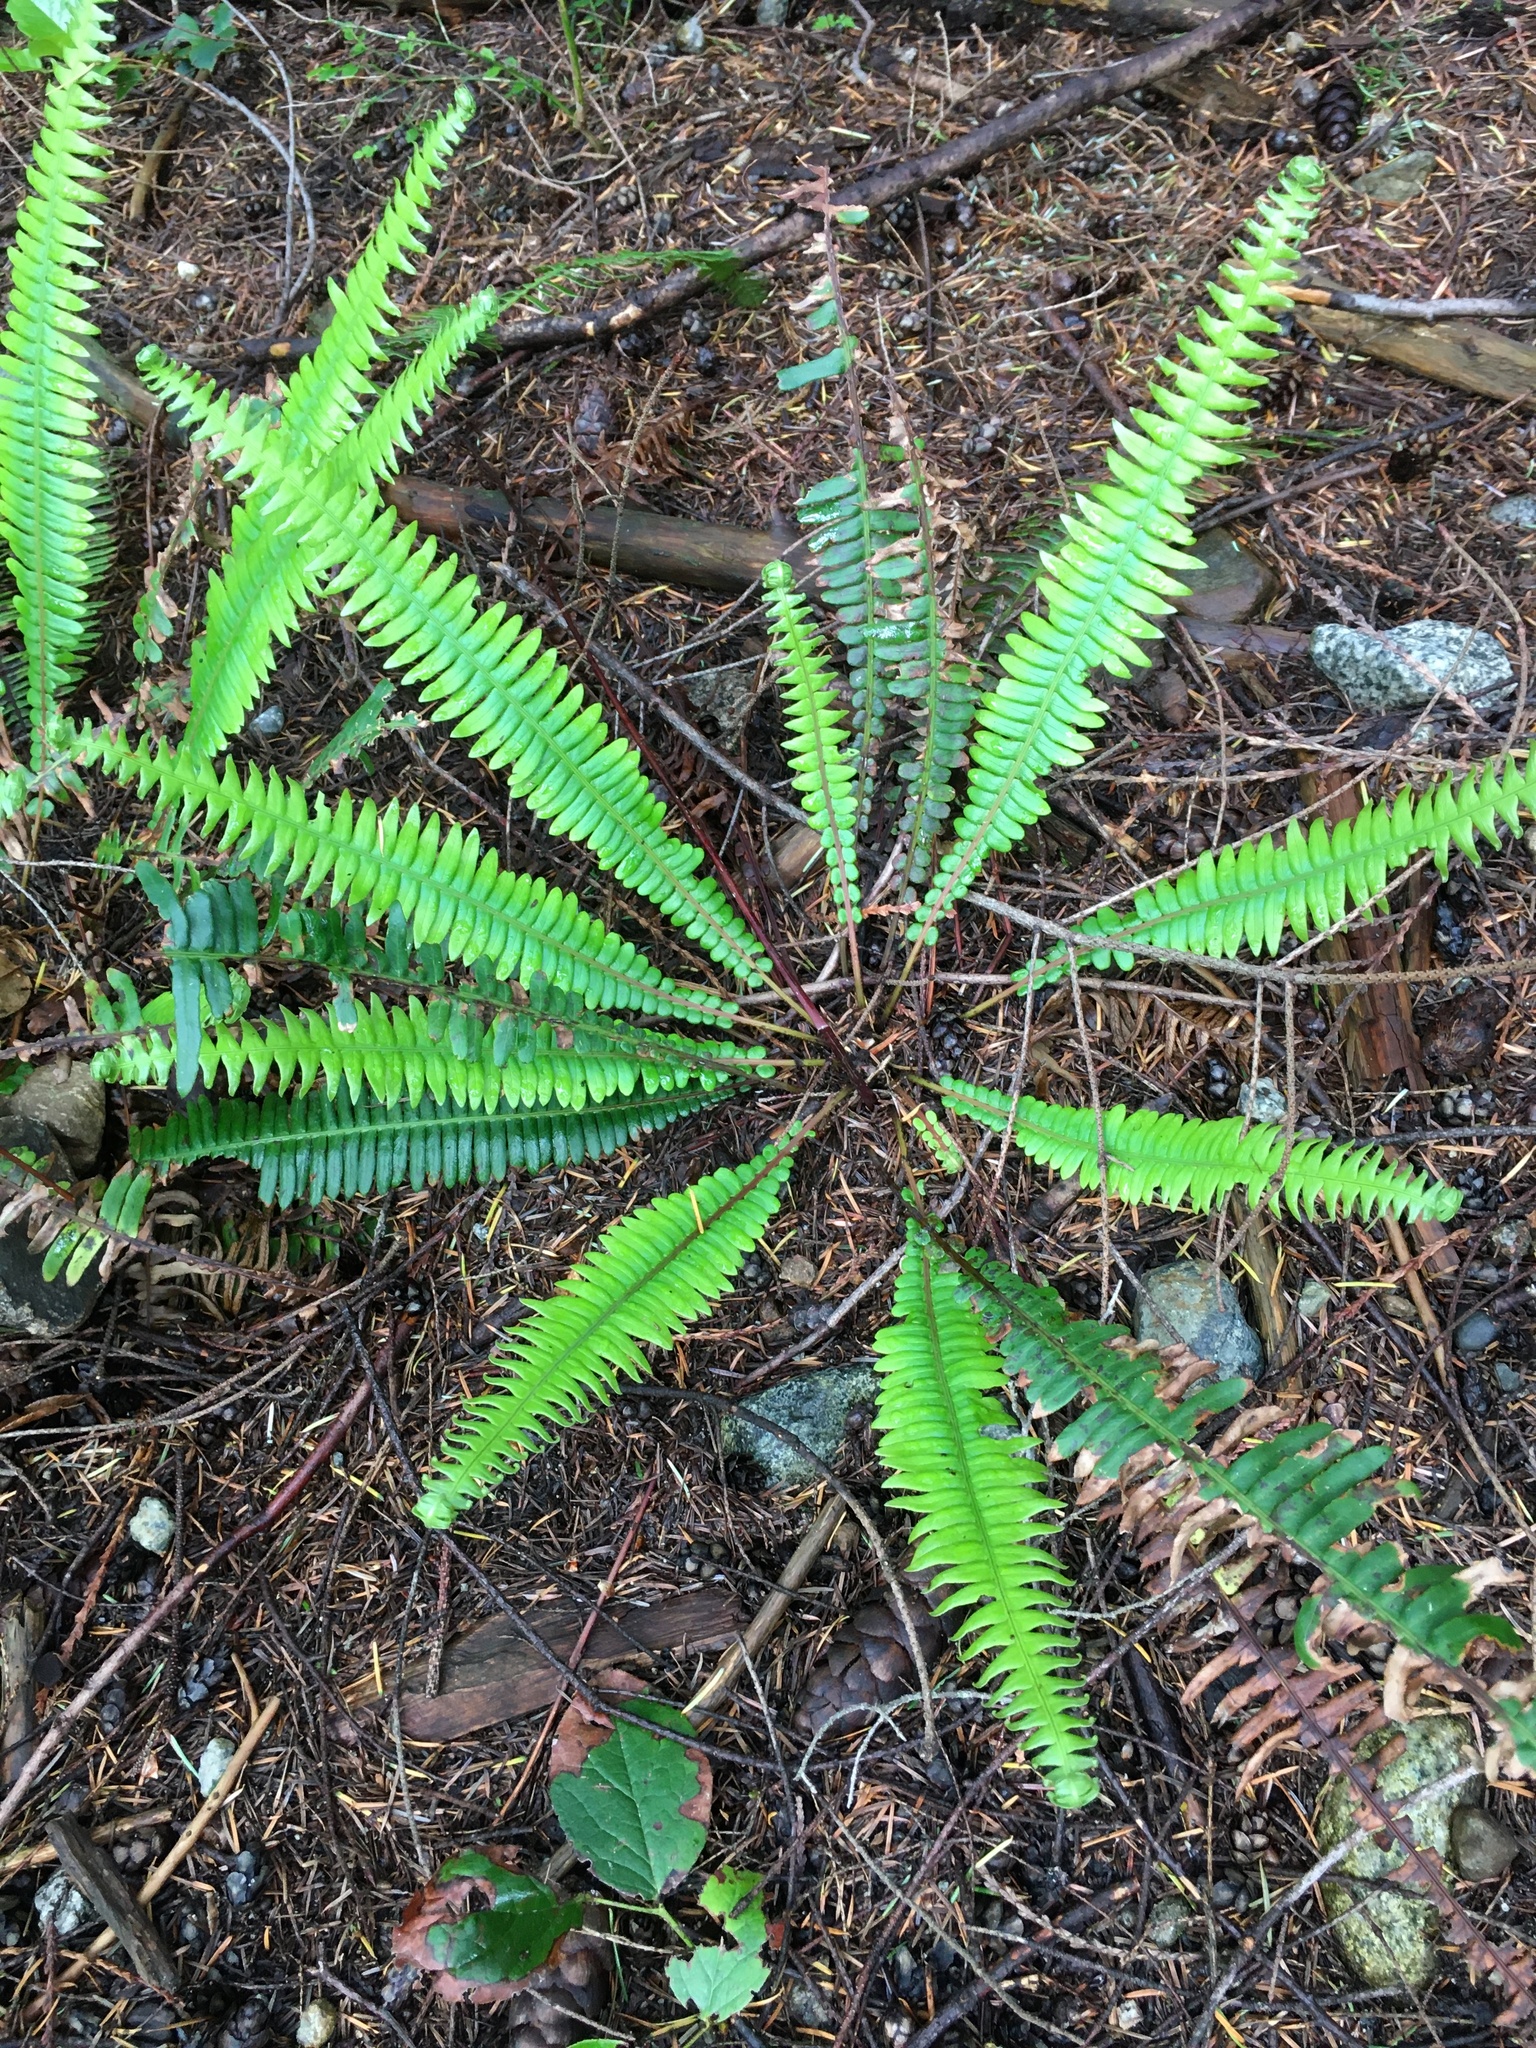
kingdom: Plantae
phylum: Tracheophyta
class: Polypodiopsida
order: Polypodiales
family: Blechnaceae
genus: Struthiopteris
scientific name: Struthiopteris spicant
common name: Deer fern
